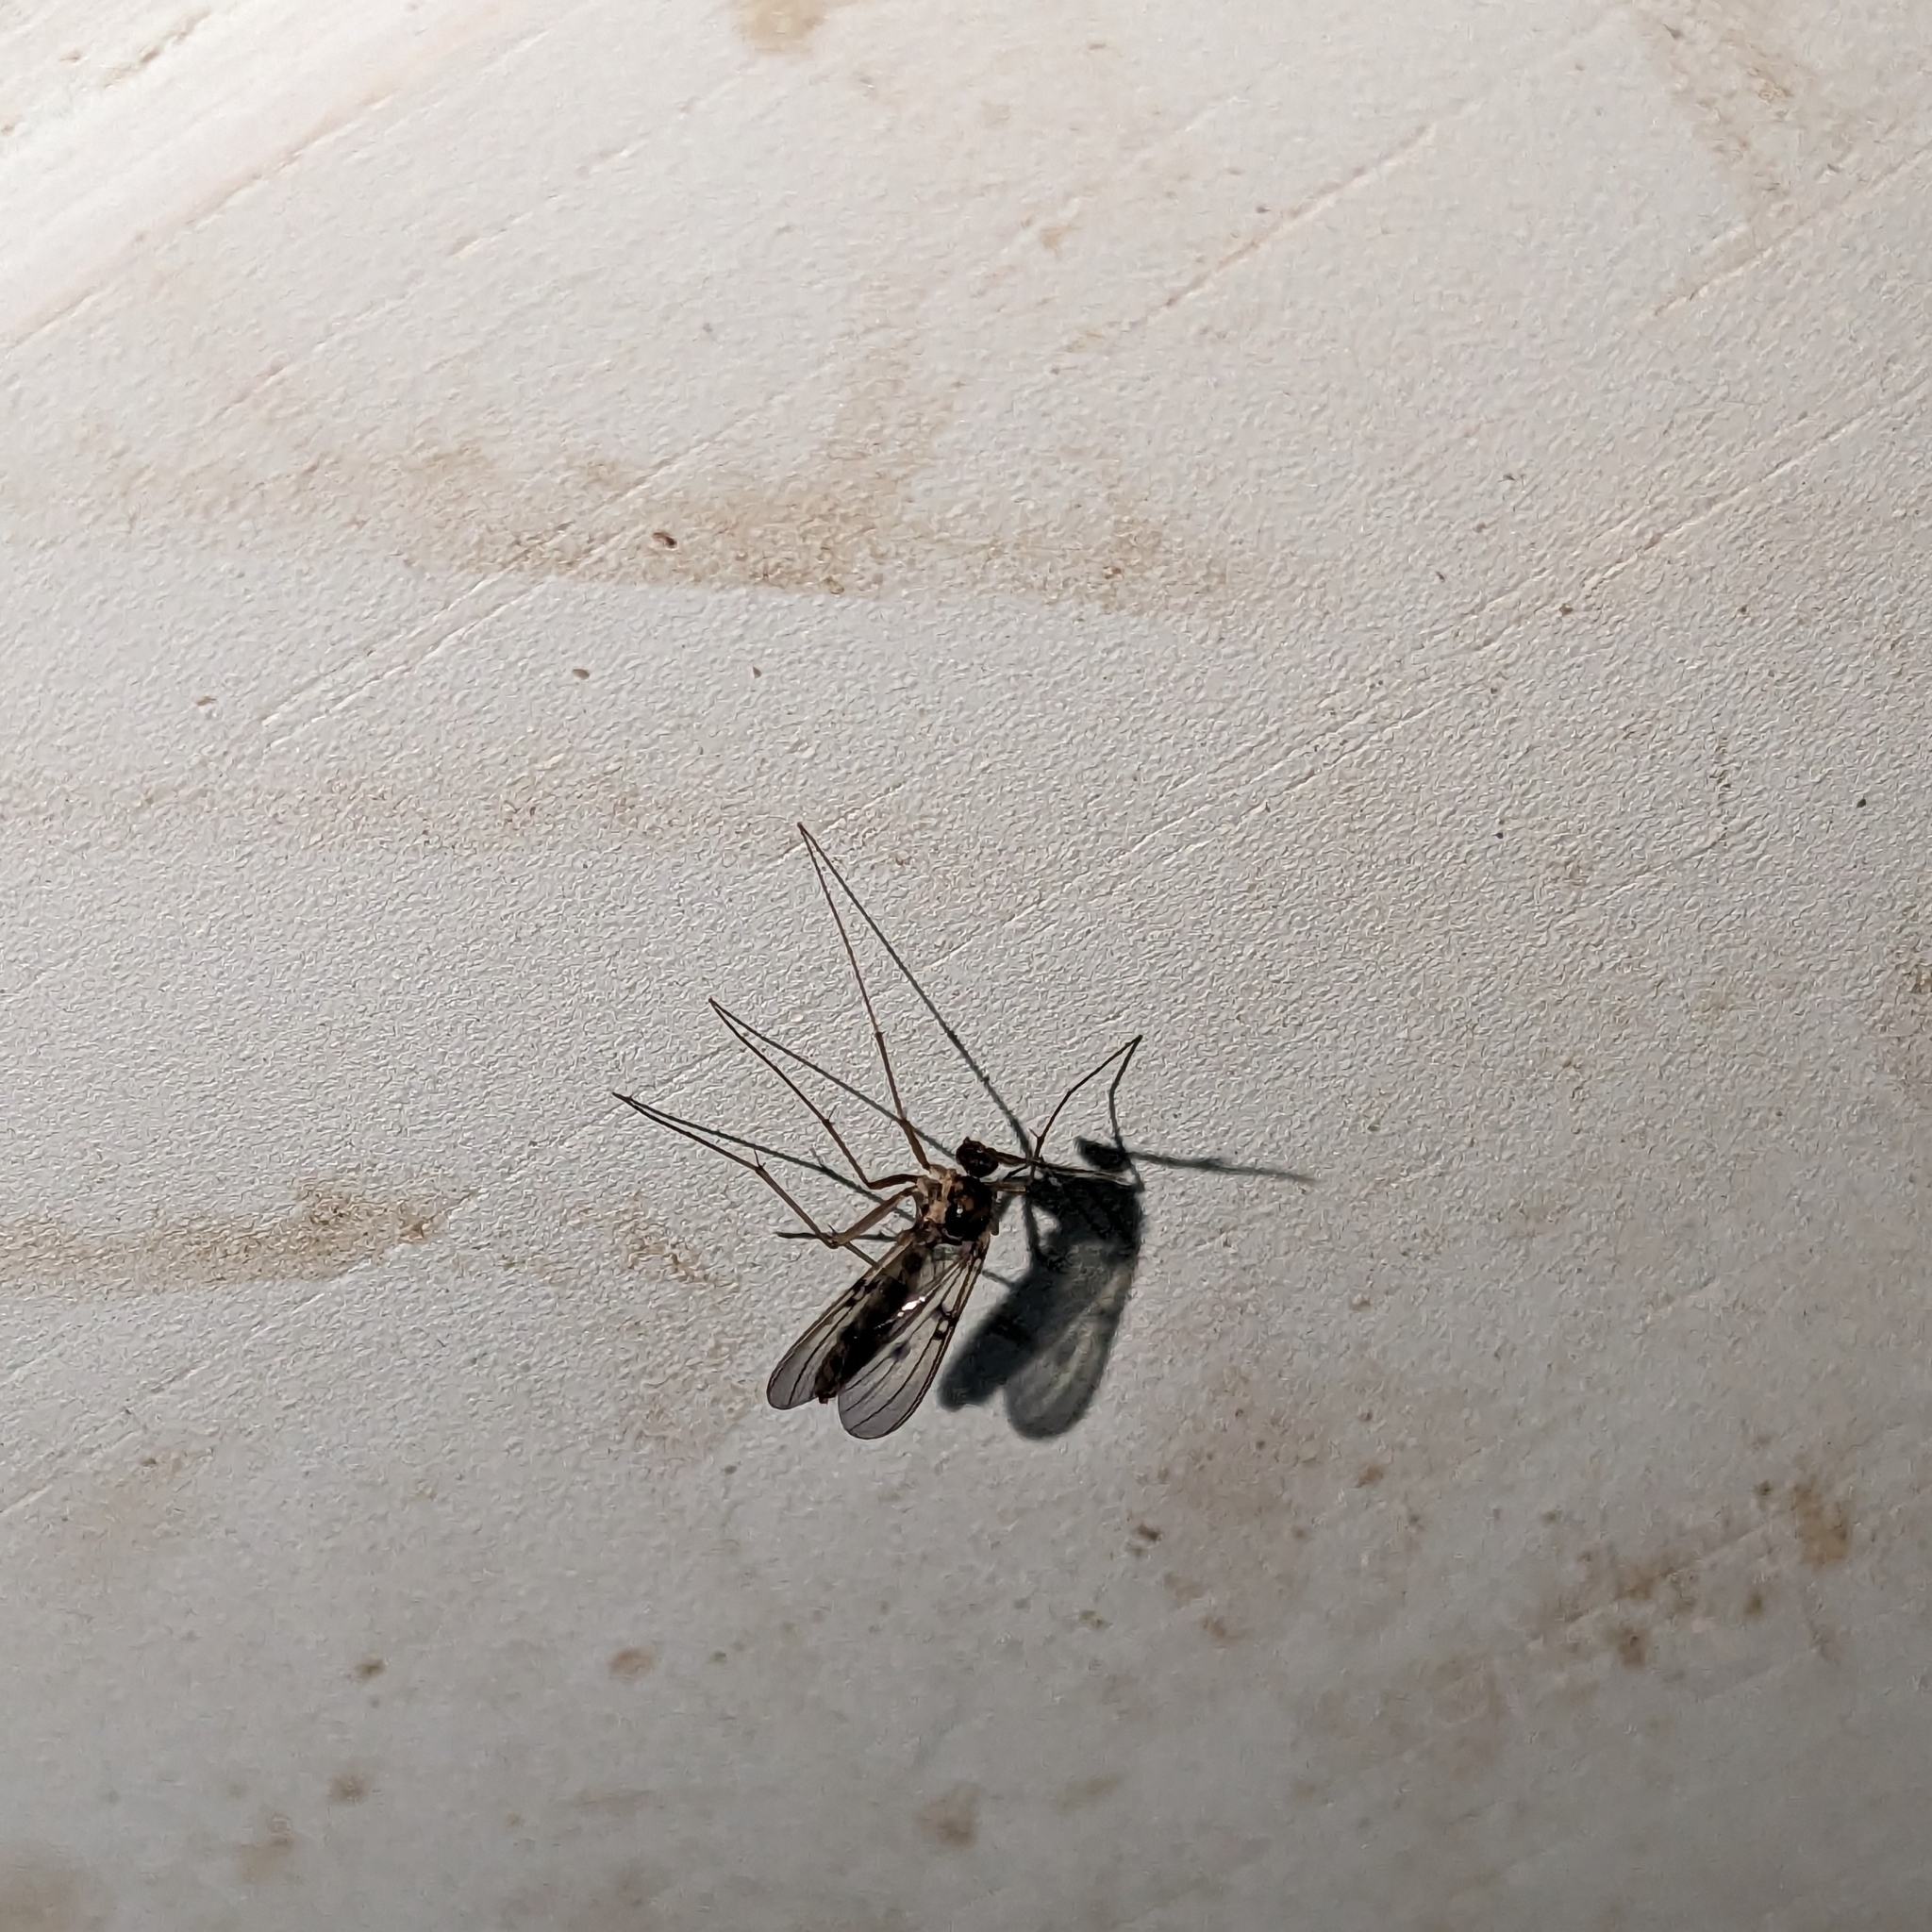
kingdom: Animalia
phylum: Arthropoda
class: Insecta
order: Diptera
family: Mycetophilidae
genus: Mycomya
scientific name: Mycomya quadrimaculata
